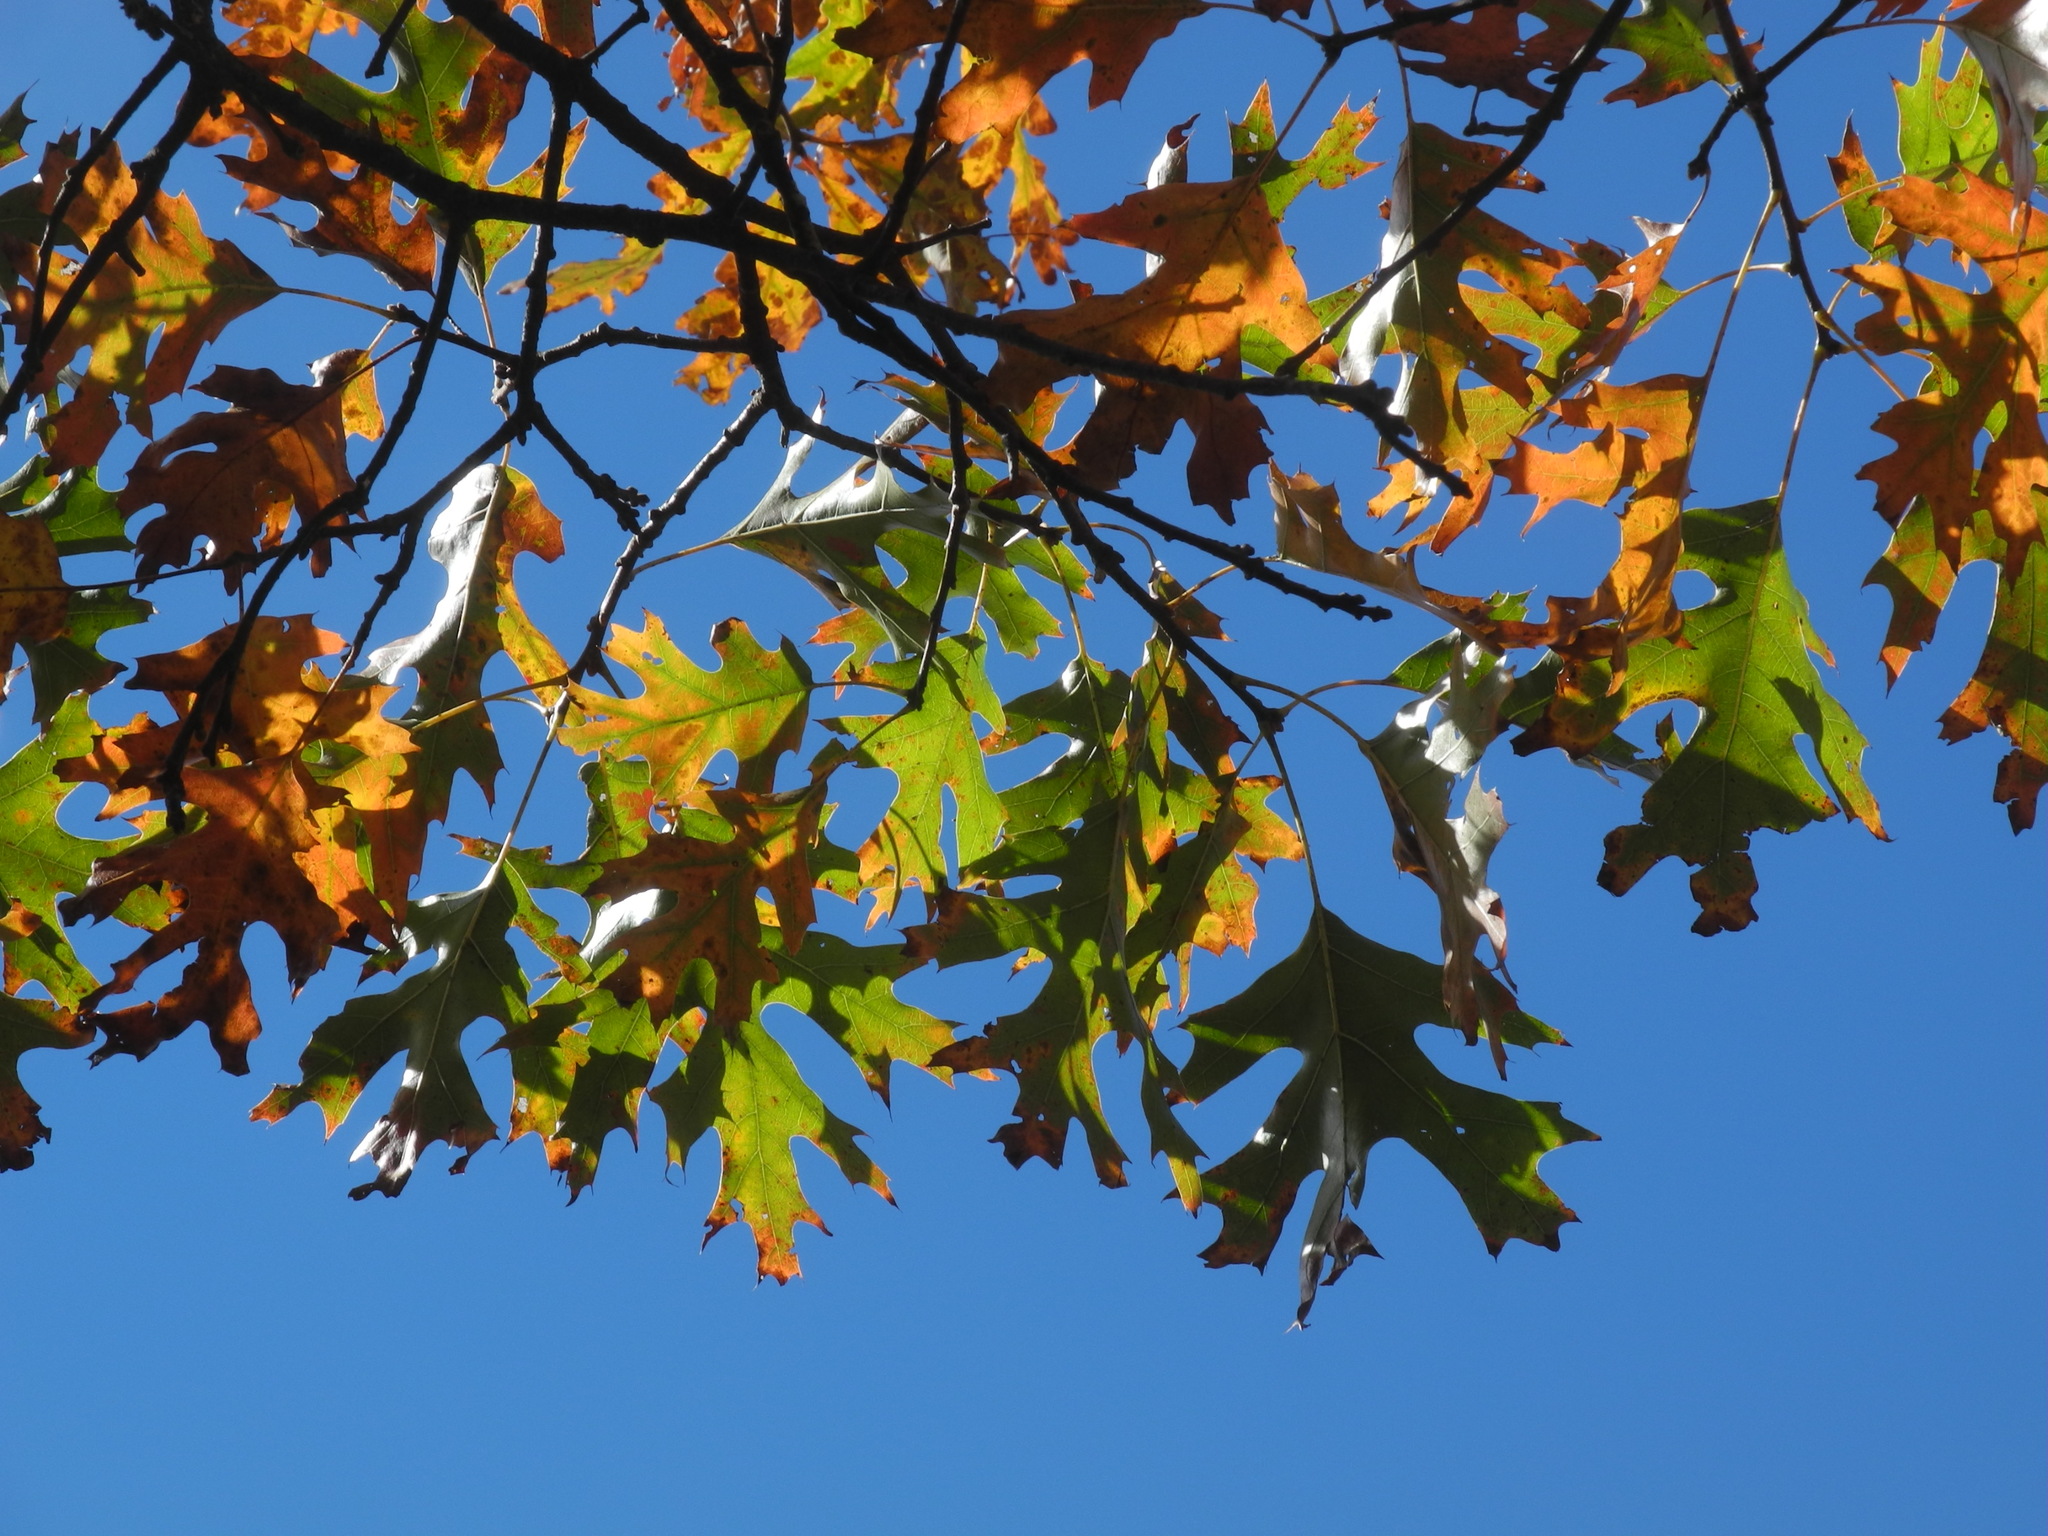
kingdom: Plantae
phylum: Tracheophyta
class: Magnoliopsida
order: Fagales
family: Fagaceae
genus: Quercus
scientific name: Quercus coccinea
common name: Scarlet oak
